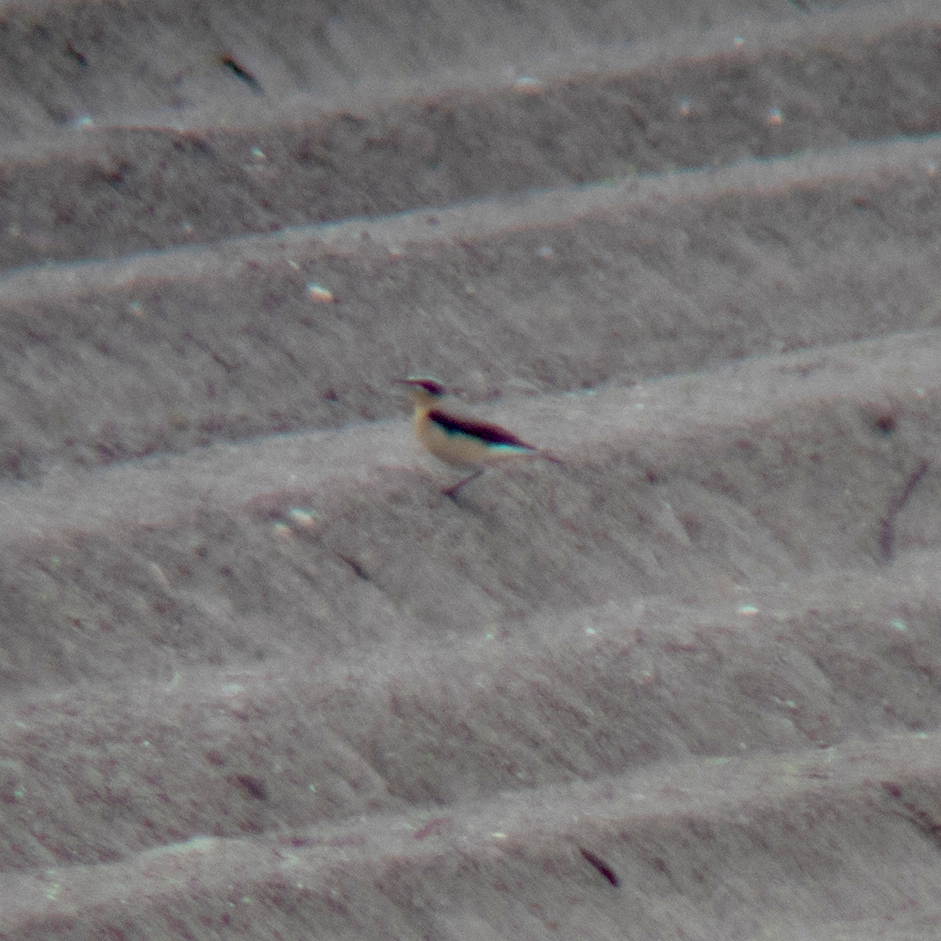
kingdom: Animalia
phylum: Chordata
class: Aves
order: Passeriformes
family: Muscicapidae
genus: Oenanthe
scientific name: Oenanthe oenanthe
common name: Northern wheatear
